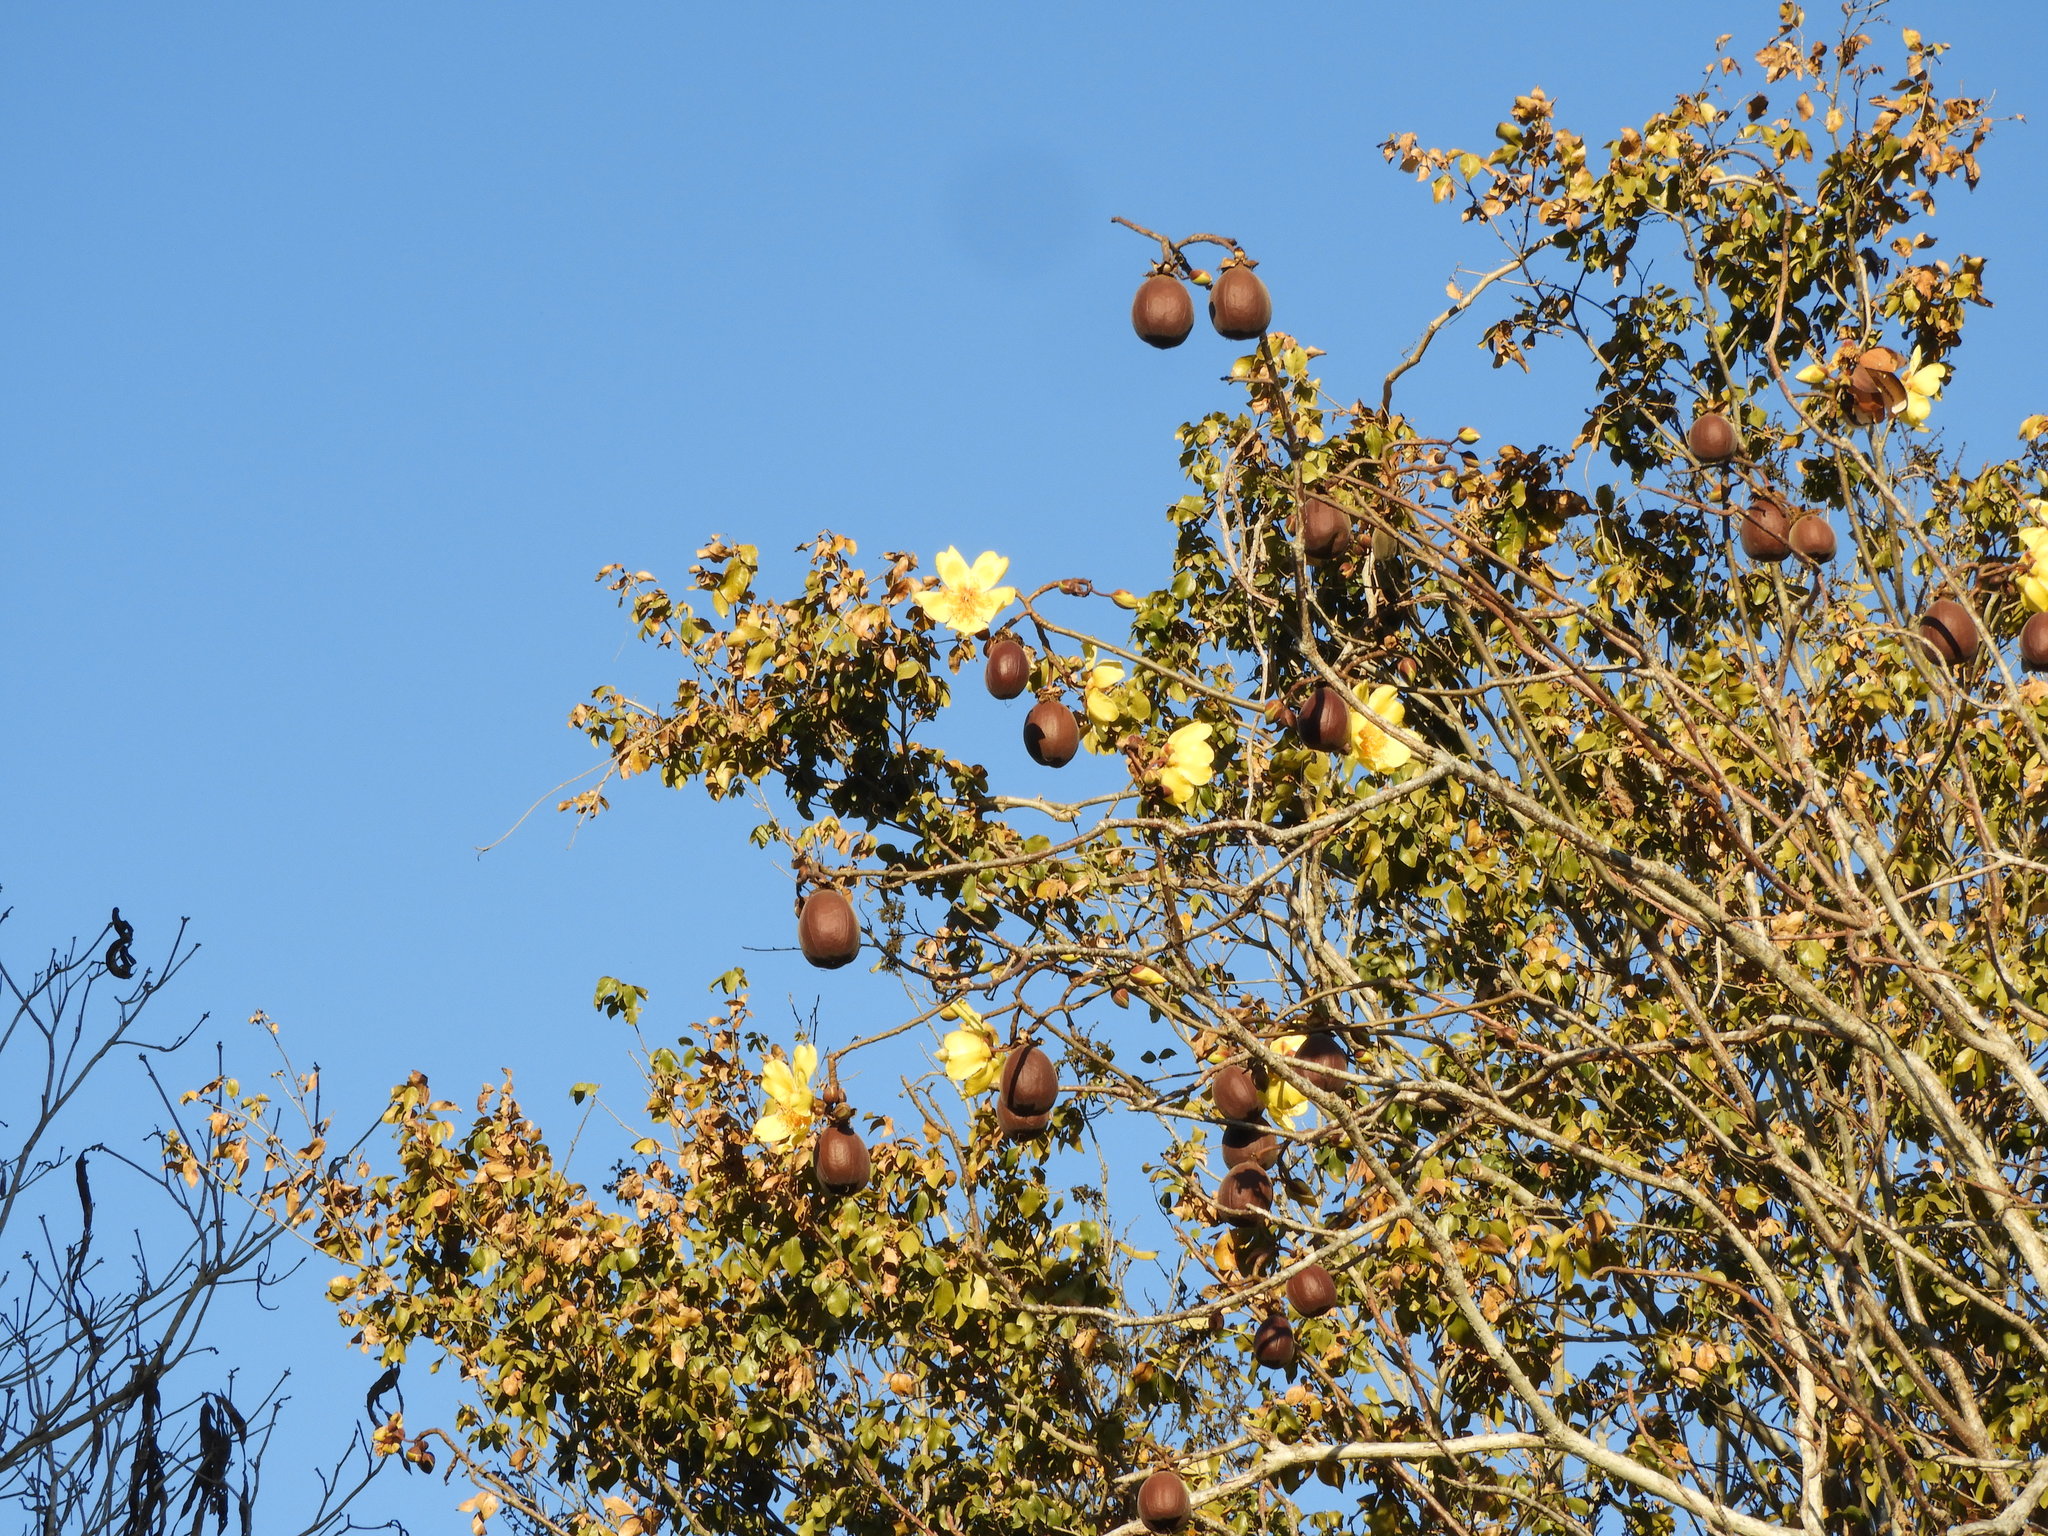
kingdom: Plantae
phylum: Tracheophyta
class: Magnoliopsida
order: Malvales
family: Cochlospermaceae
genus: Cochlospermum
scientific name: Cochlospermum vitifolium
